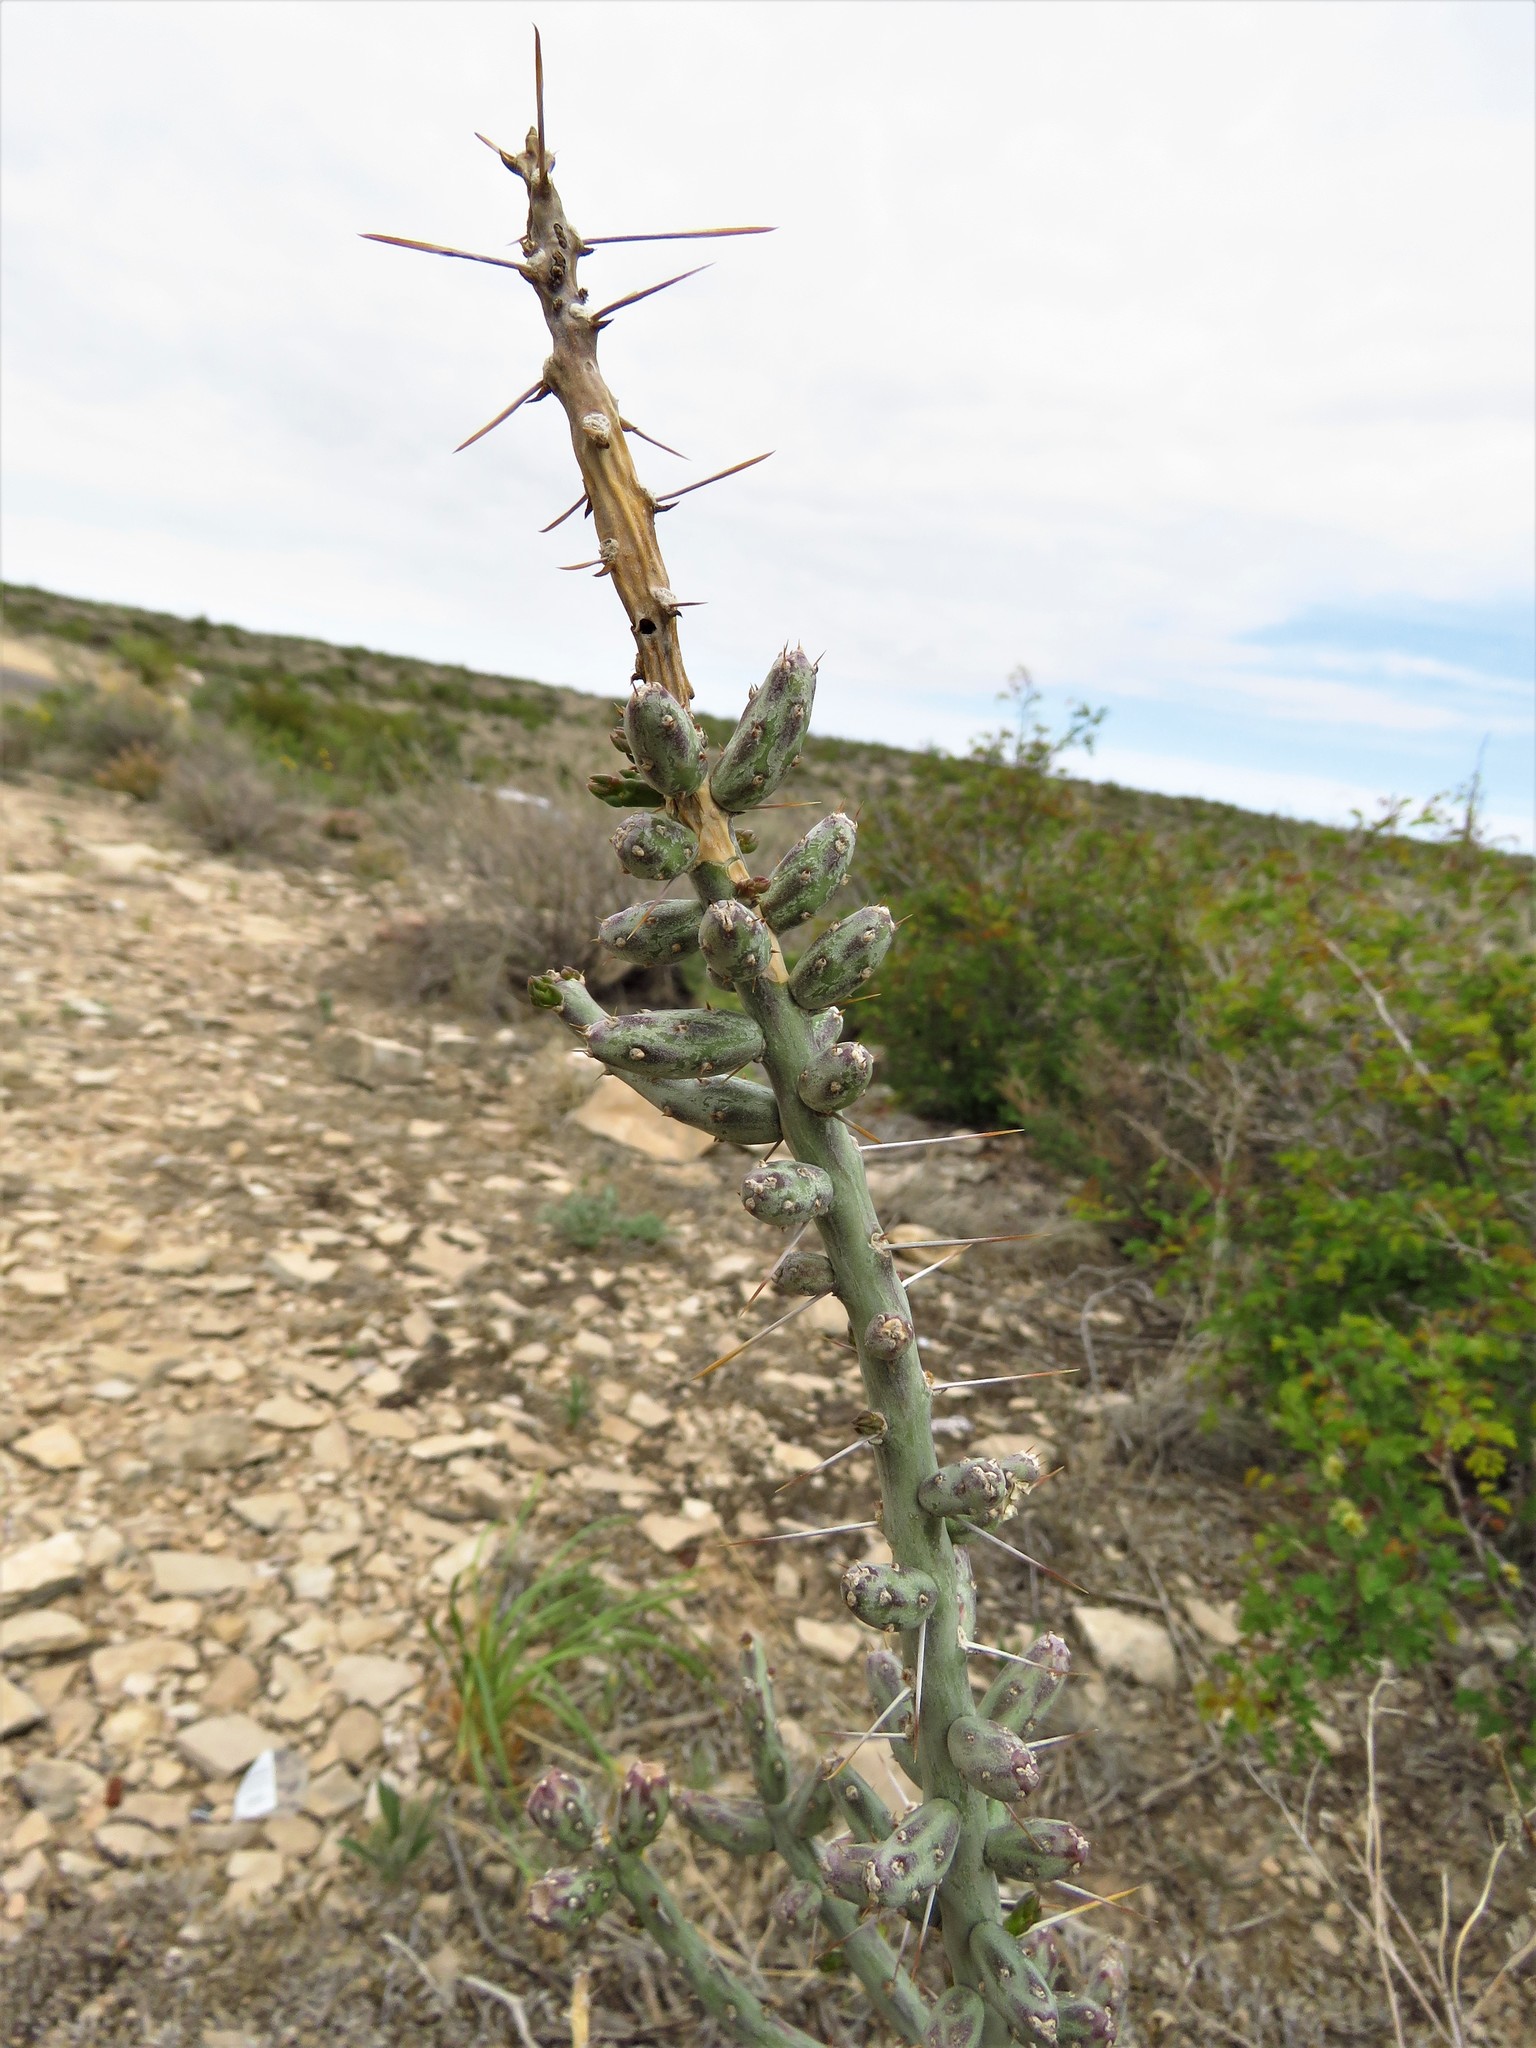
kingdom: Plantae
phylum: Tracheophyta
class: Magnoliopsida
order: Caryophyllales
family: Cactaceae
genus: Cylindropuntia
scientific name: Cylindropuntia leptocaulis
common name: Christmas cactus
